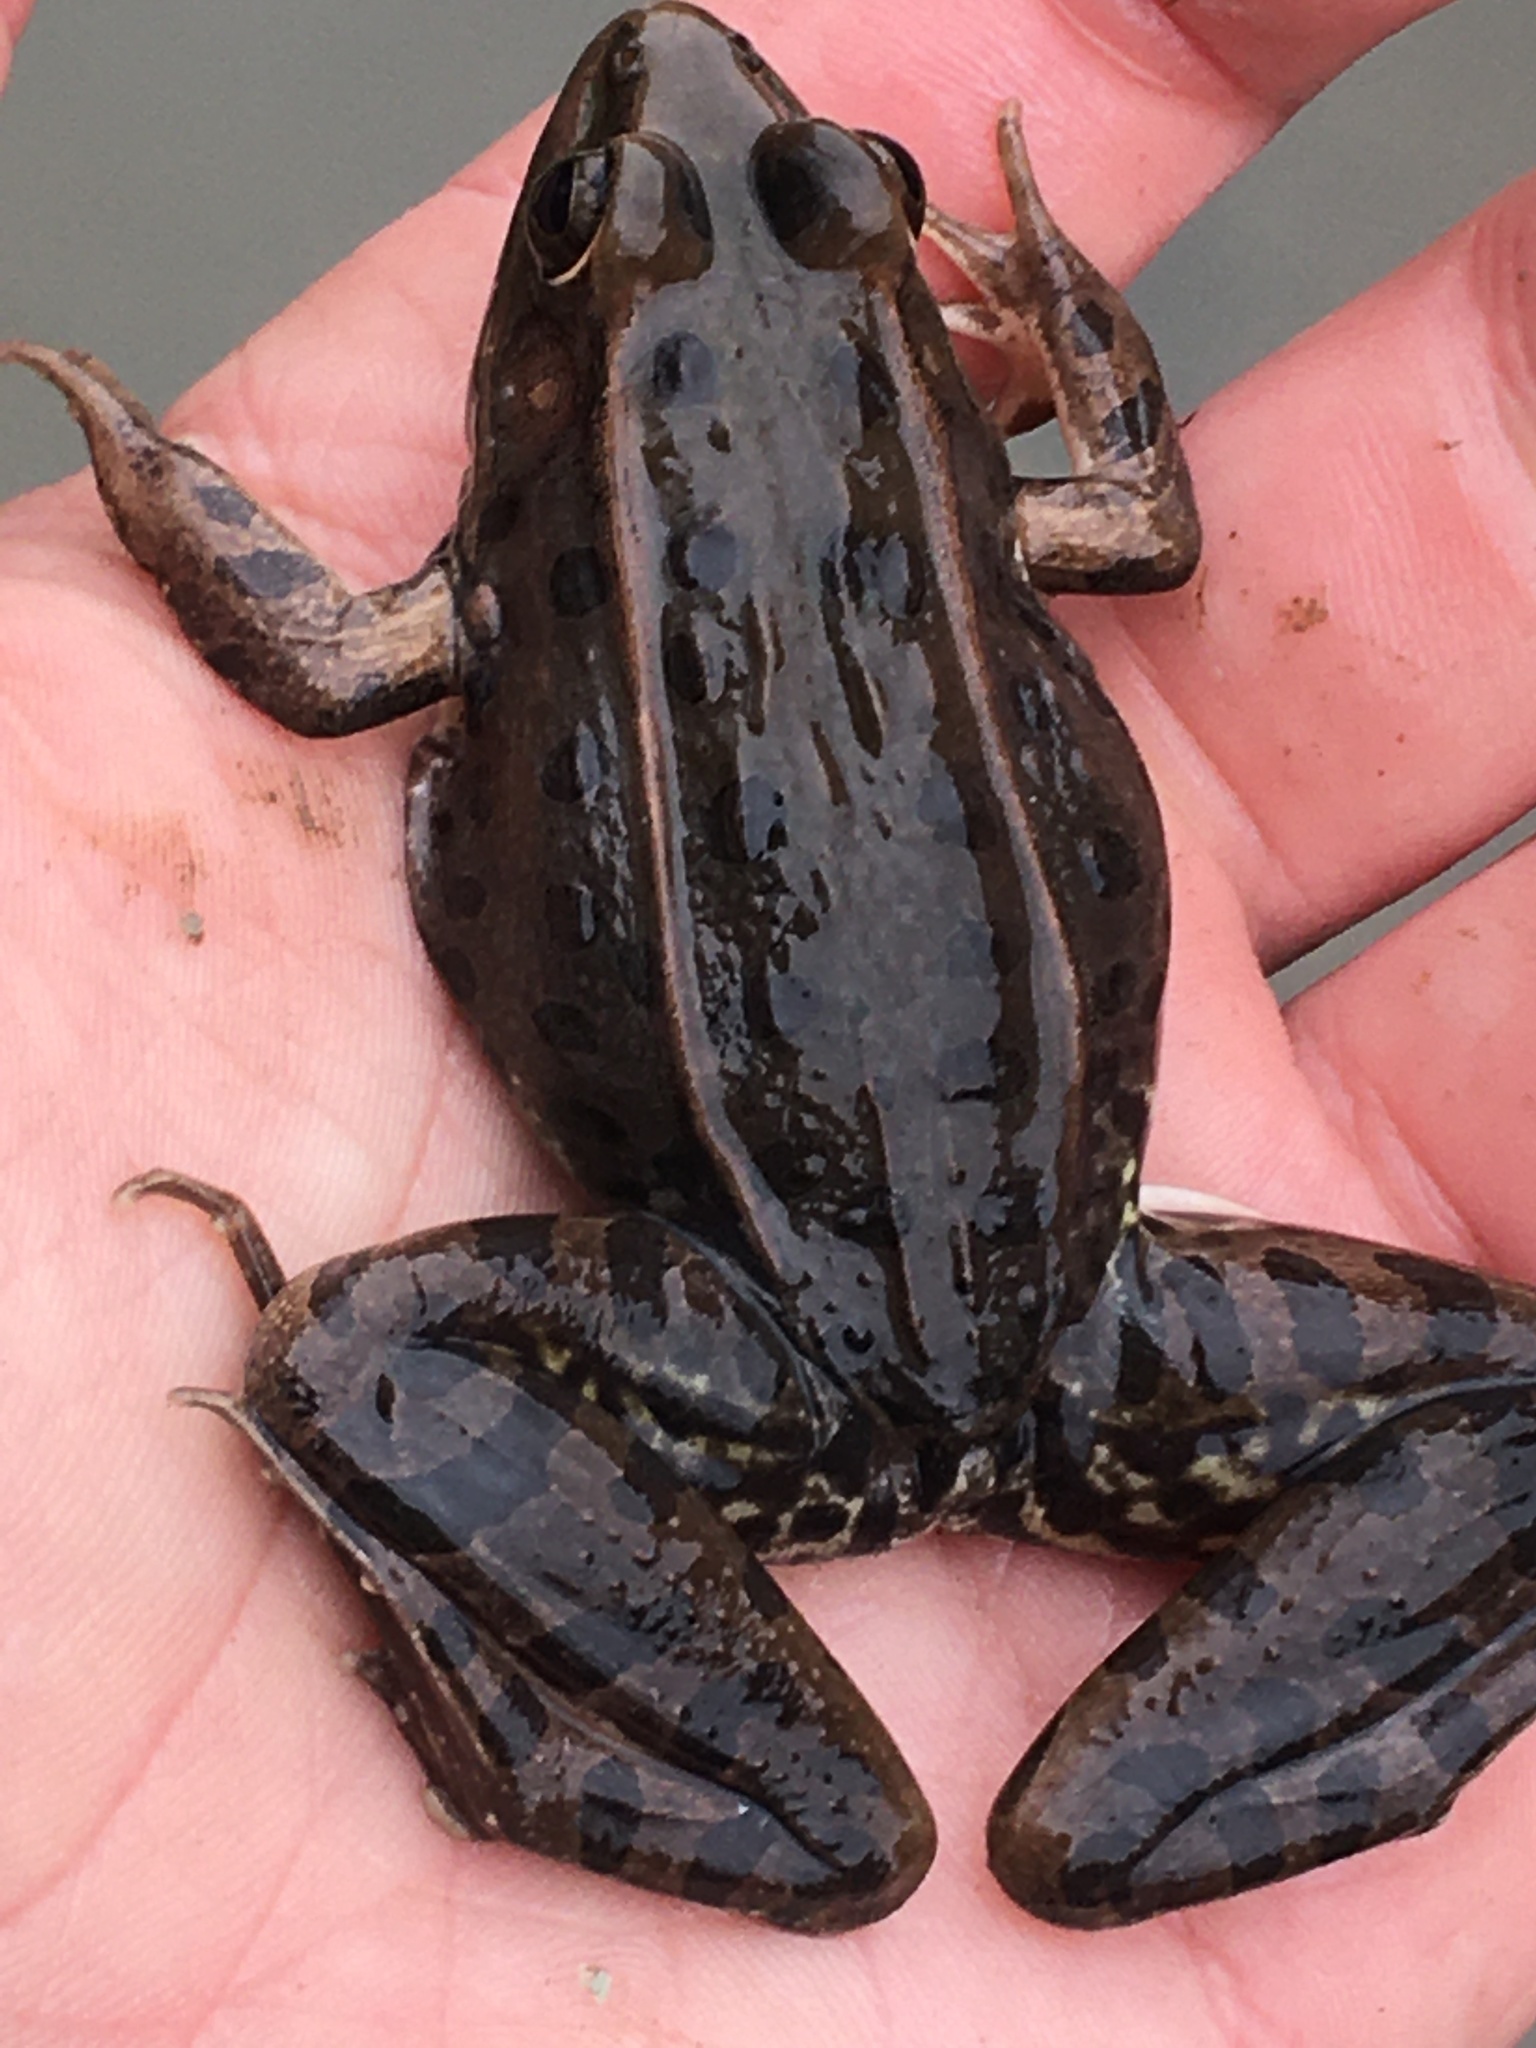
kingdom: Animalia
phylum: Chordata
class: Amphibia
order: Anura
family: Ranidae
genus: Lithobates
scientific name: Lithobates sphenocephalus
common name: Southern leopard frog
